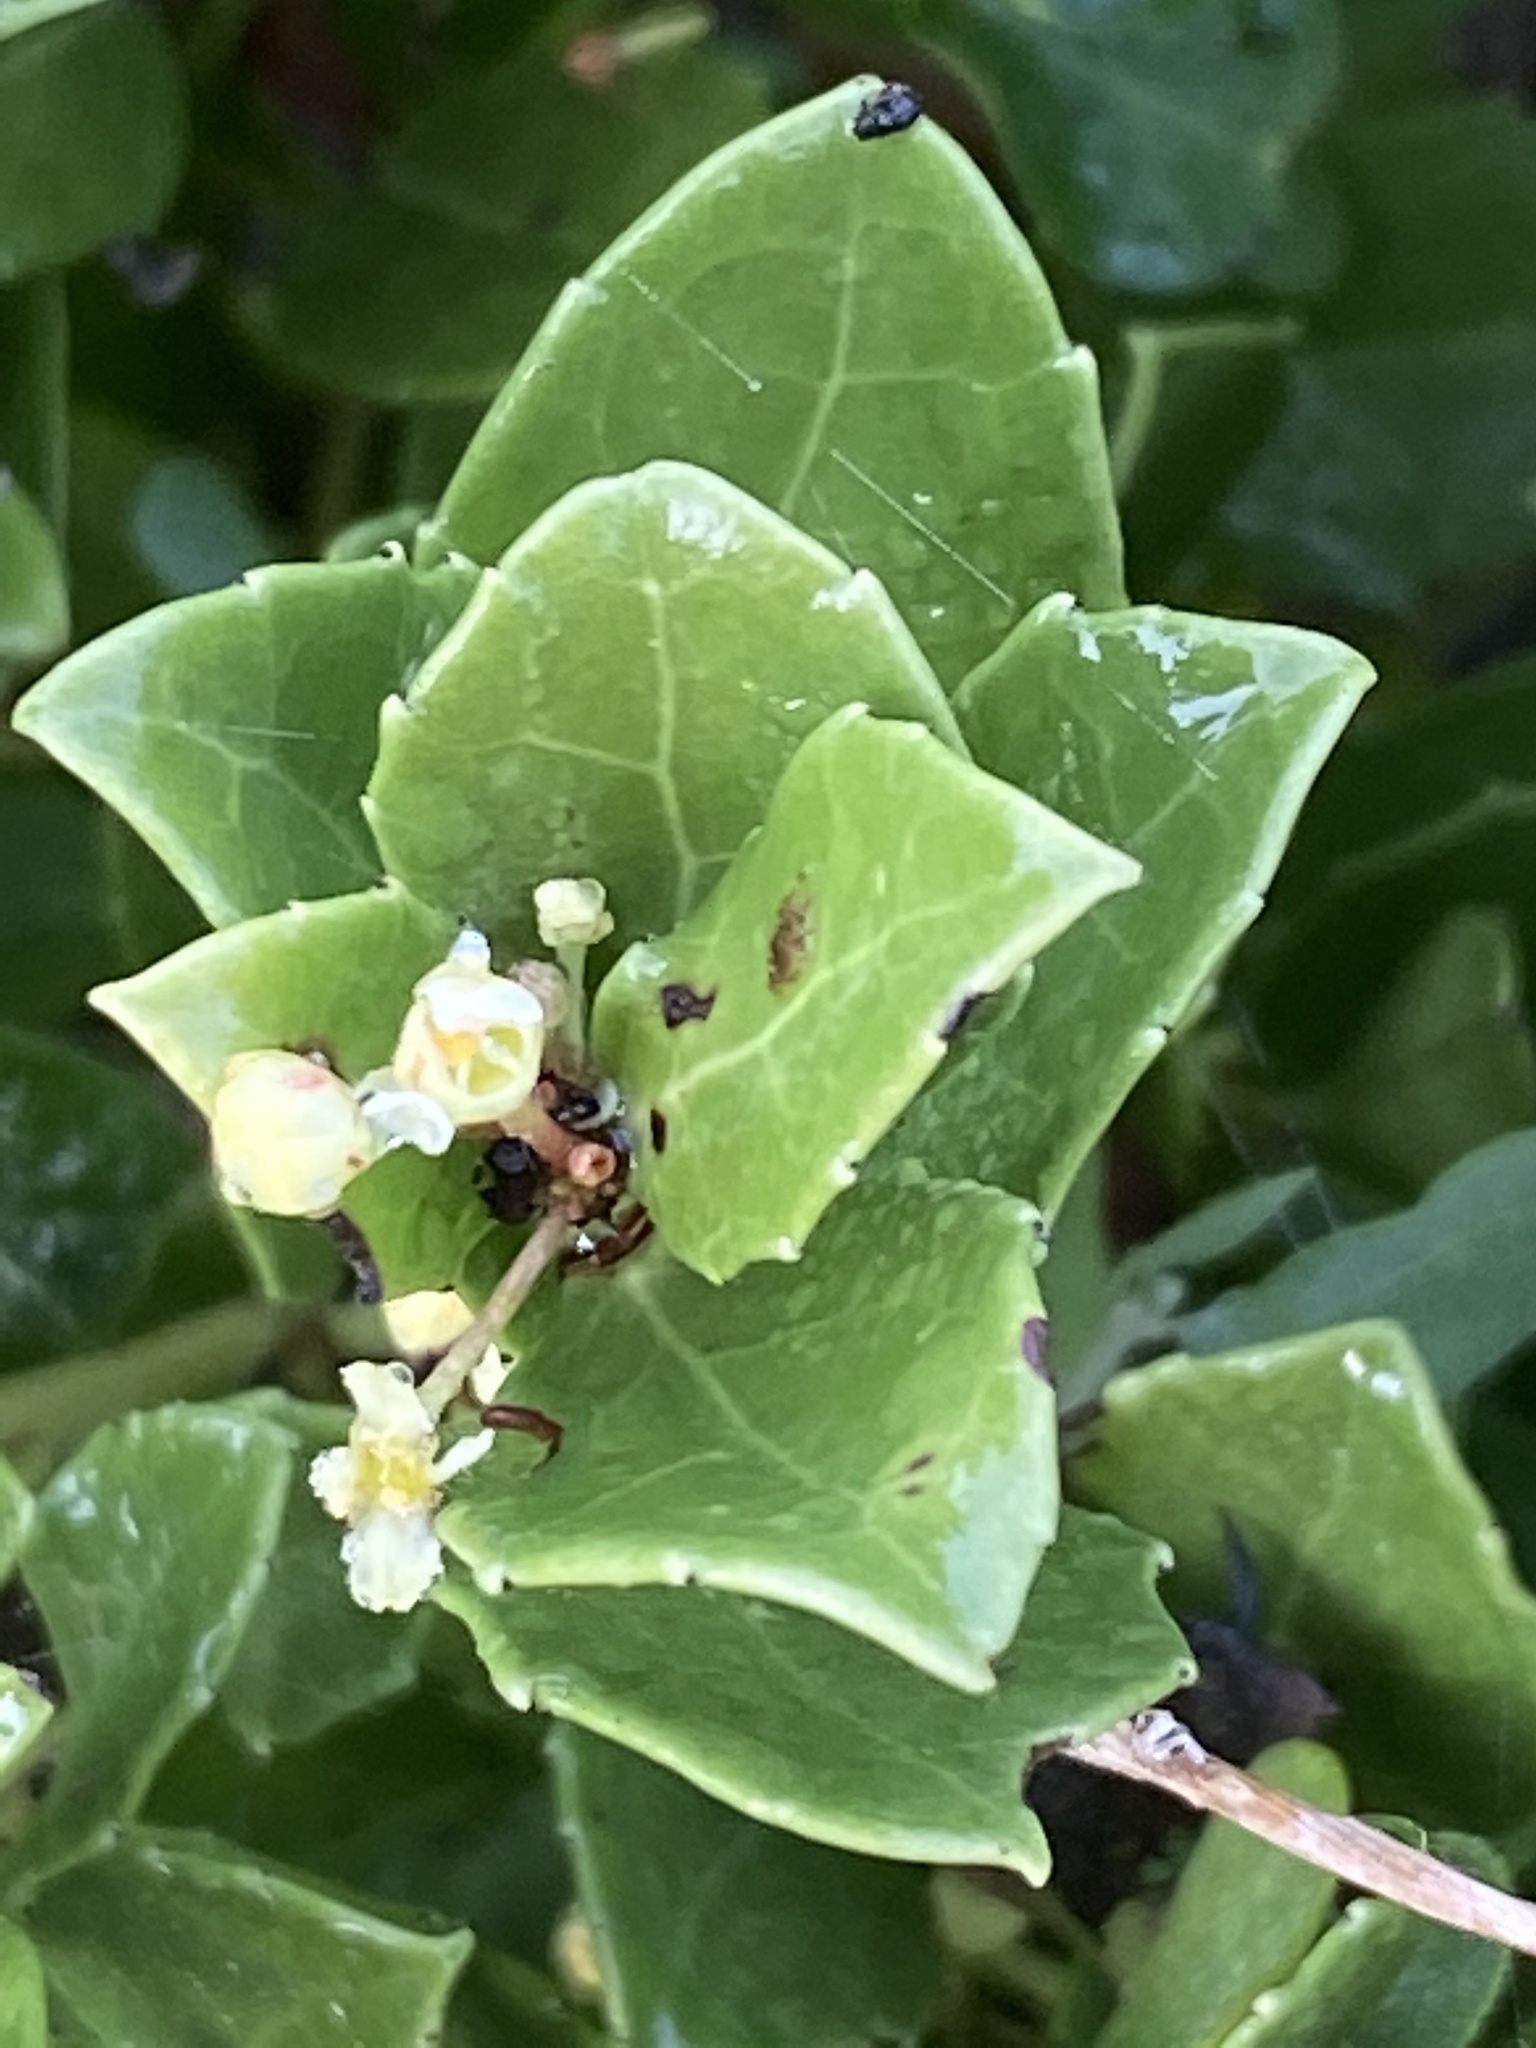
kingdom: Plantae
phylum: Tracheophyta
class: Magnoliopsida
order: Celastrales
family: Celastraceae
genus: Gymnosporia
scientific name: Gymnosporia procumbens
